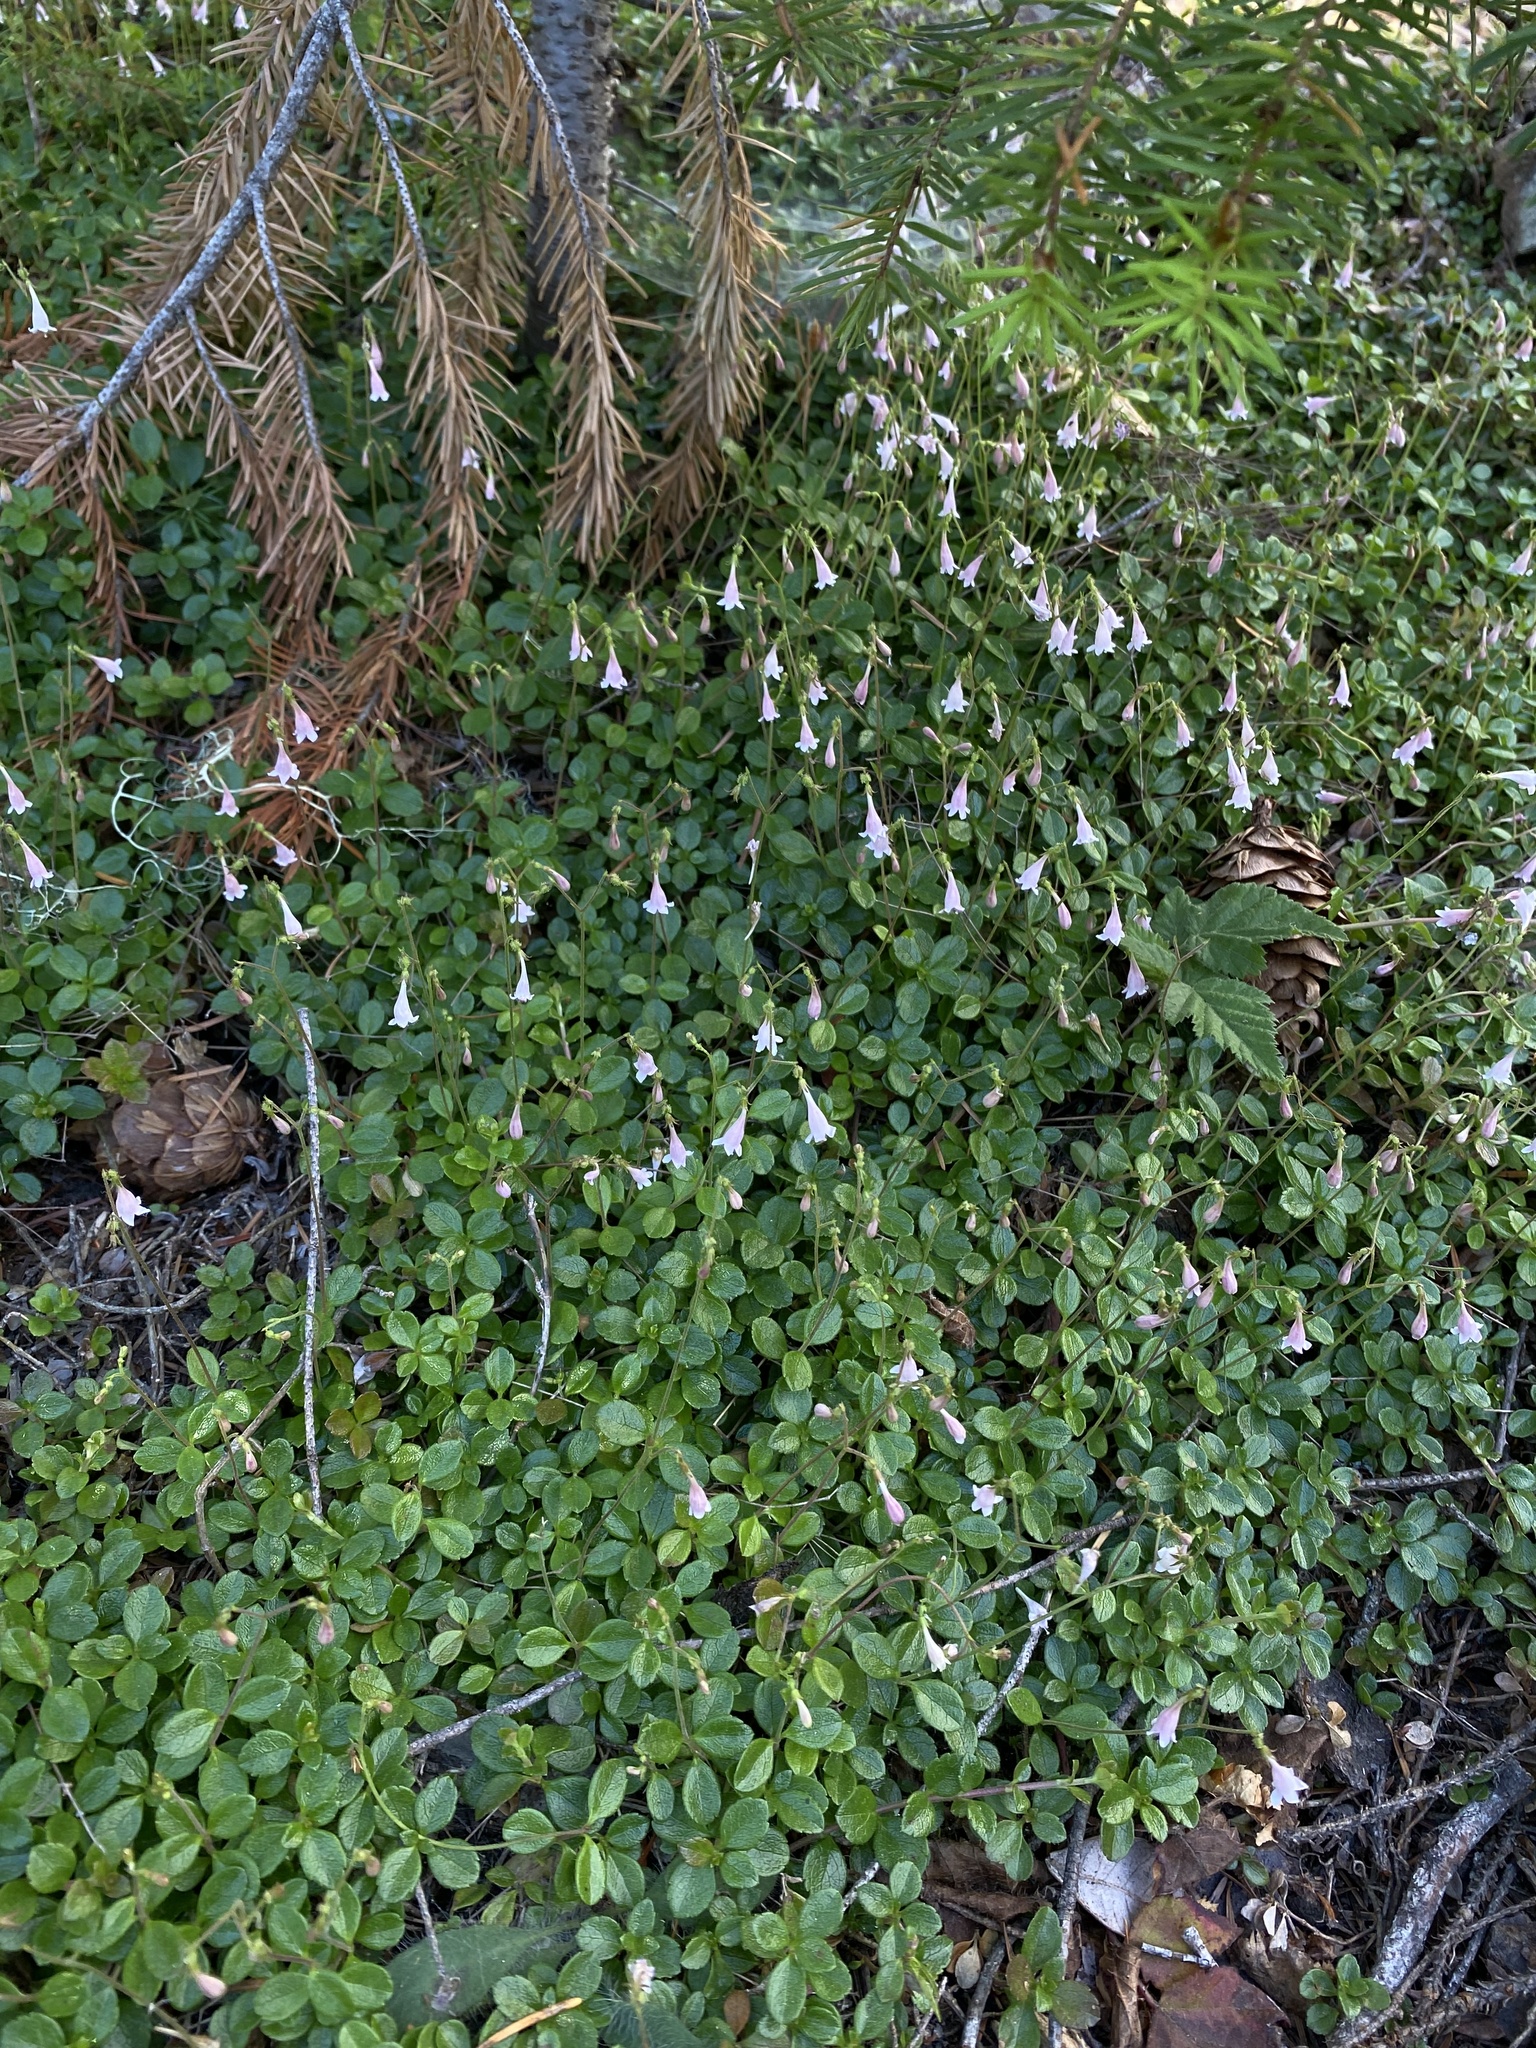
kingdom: Plantae
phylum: Tracheophyta
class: Magnoliopsida
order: Dipsacales
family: Caprifoliaceae
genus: Linnaea
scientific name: Linnaea borealis
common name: Twinflower
